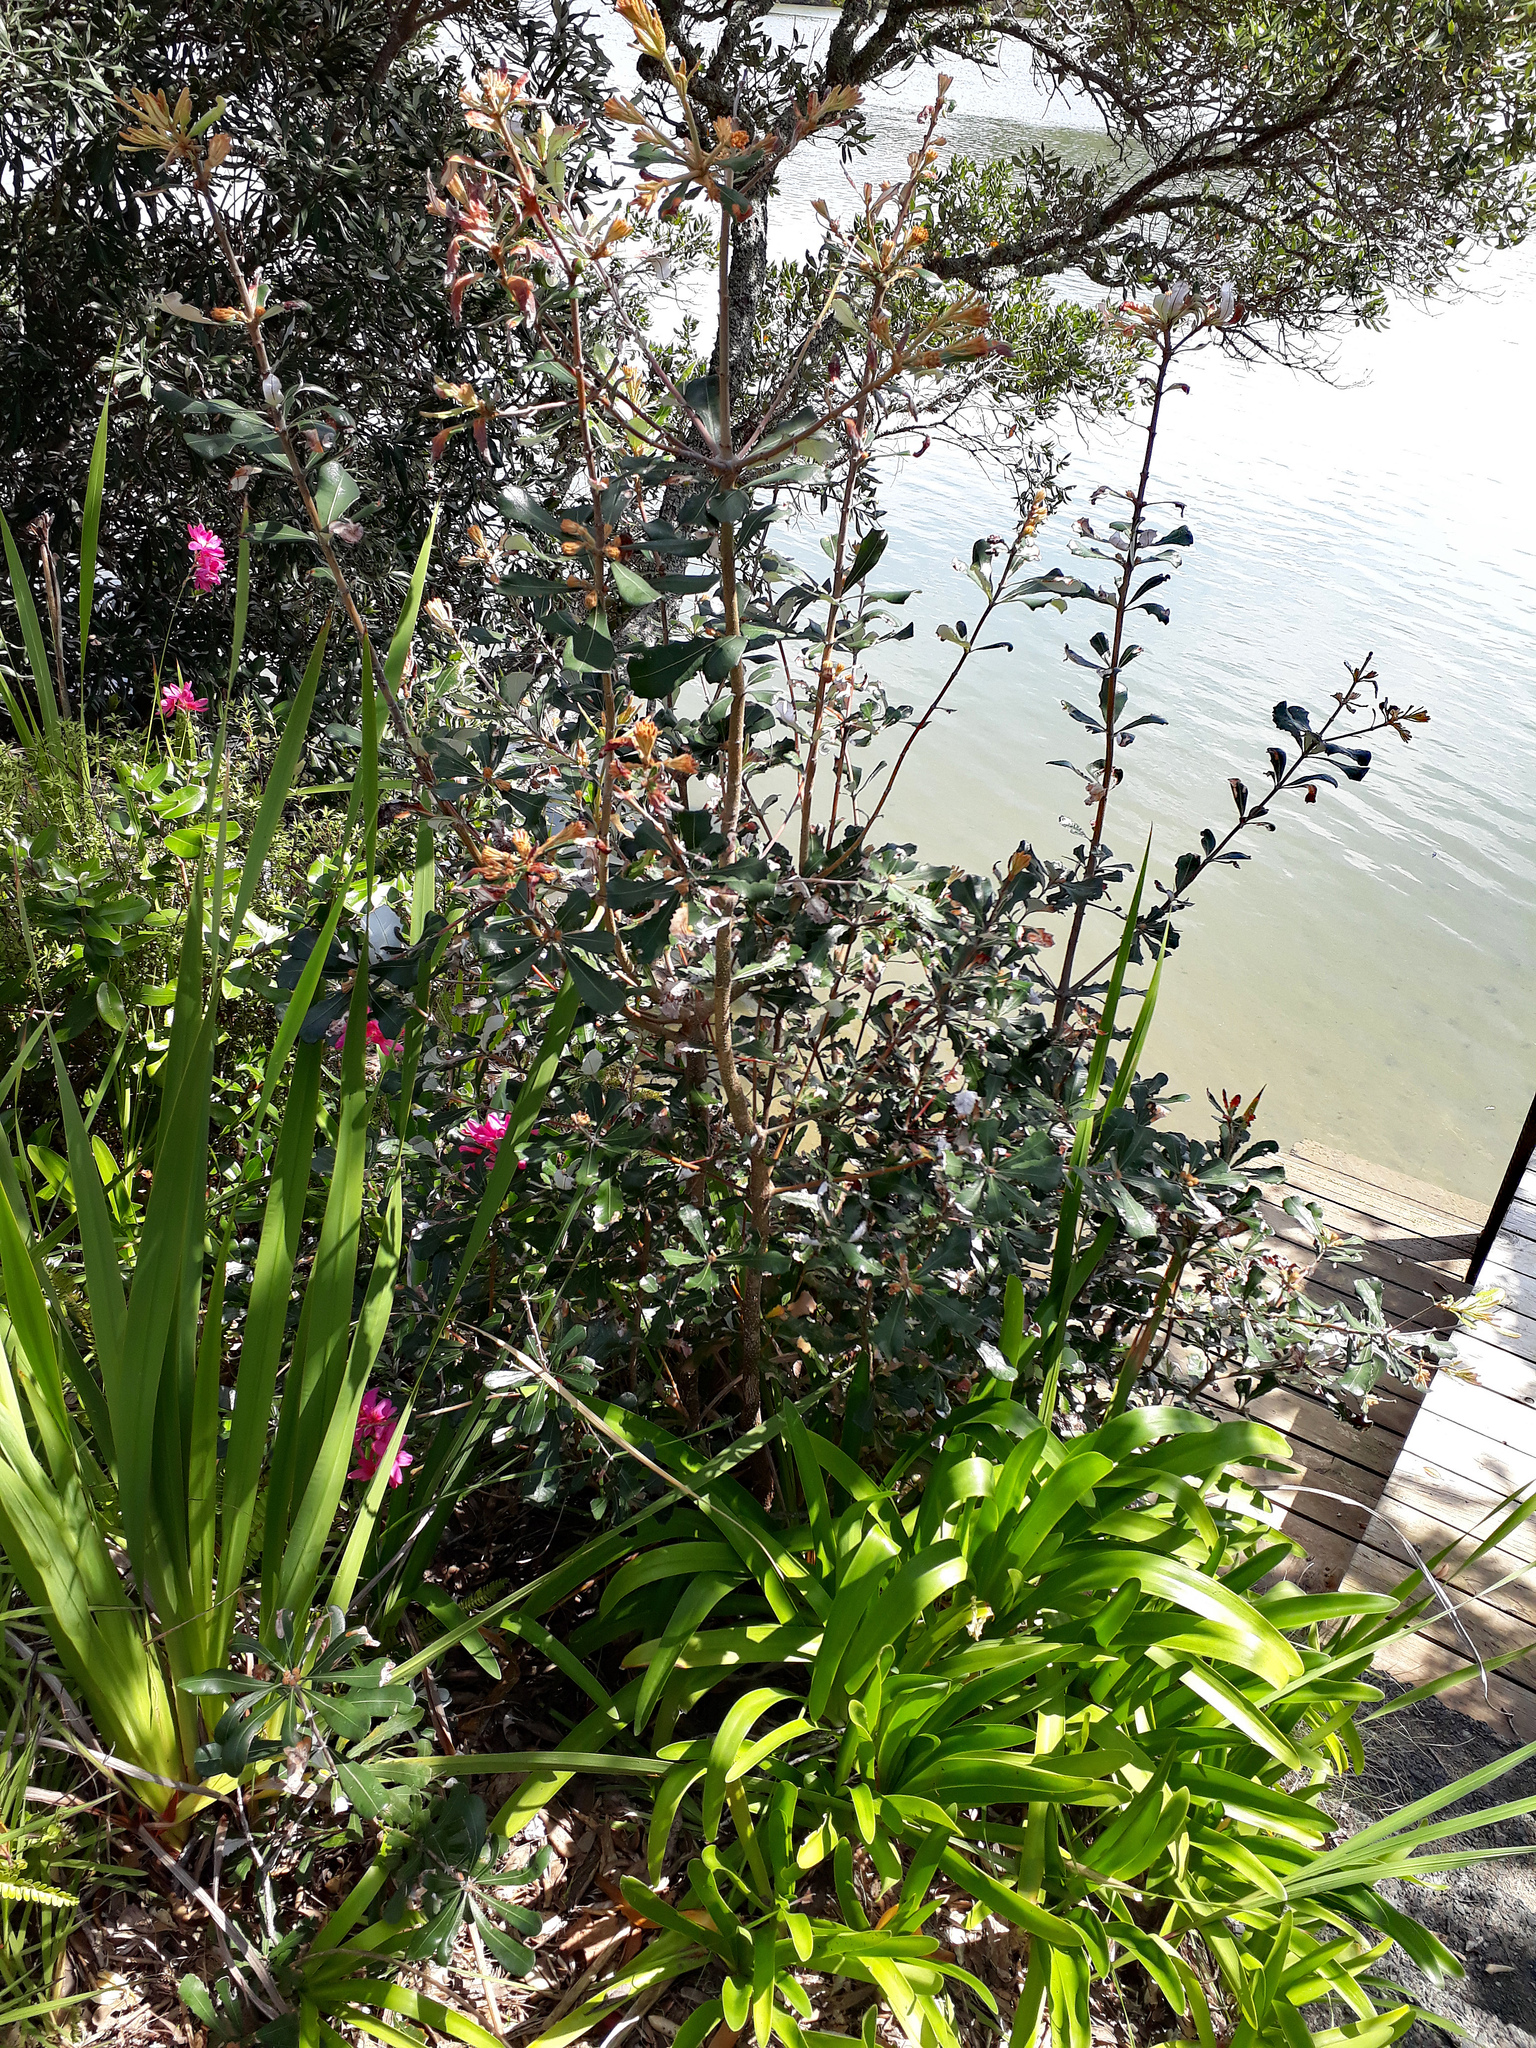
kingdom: Plantae
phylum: Tracheophyta
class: Magnoliopsida
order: Proteales
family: Proteaceae
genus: Banksia
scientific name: Banksia integrifolia
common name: White-honeysuckle
